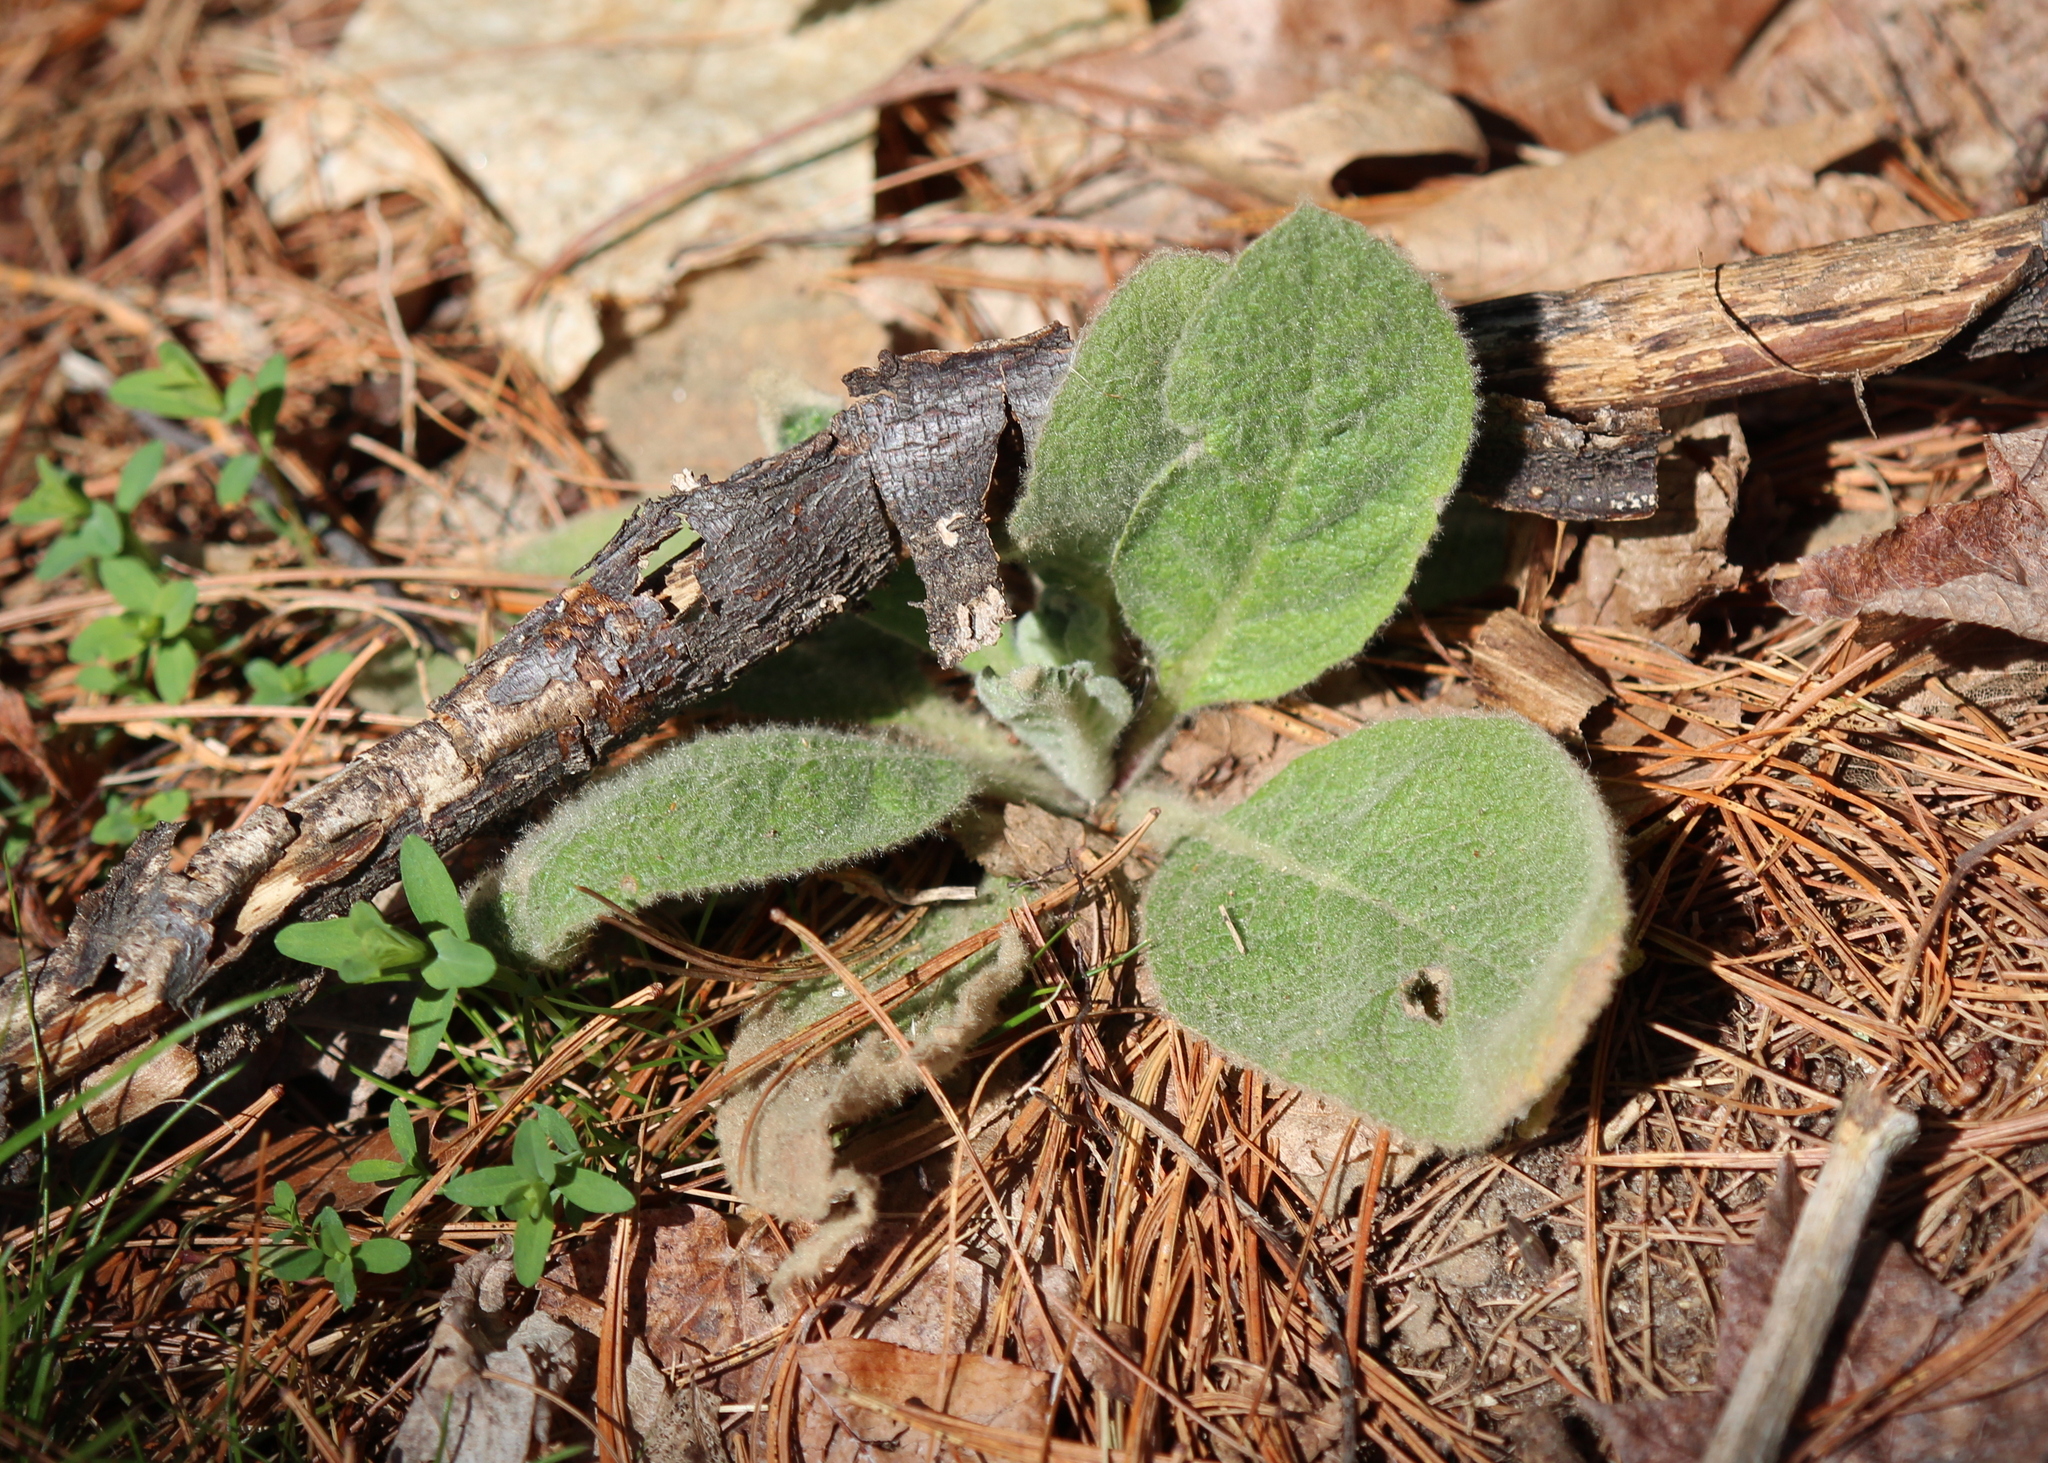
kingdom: Plantae
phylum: Tracheophyta
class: Magnoliopsida
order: Lamiales
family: Scrophulariaceae
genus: Verbascum
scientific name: Verbascum thapsus
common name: Common mullein
